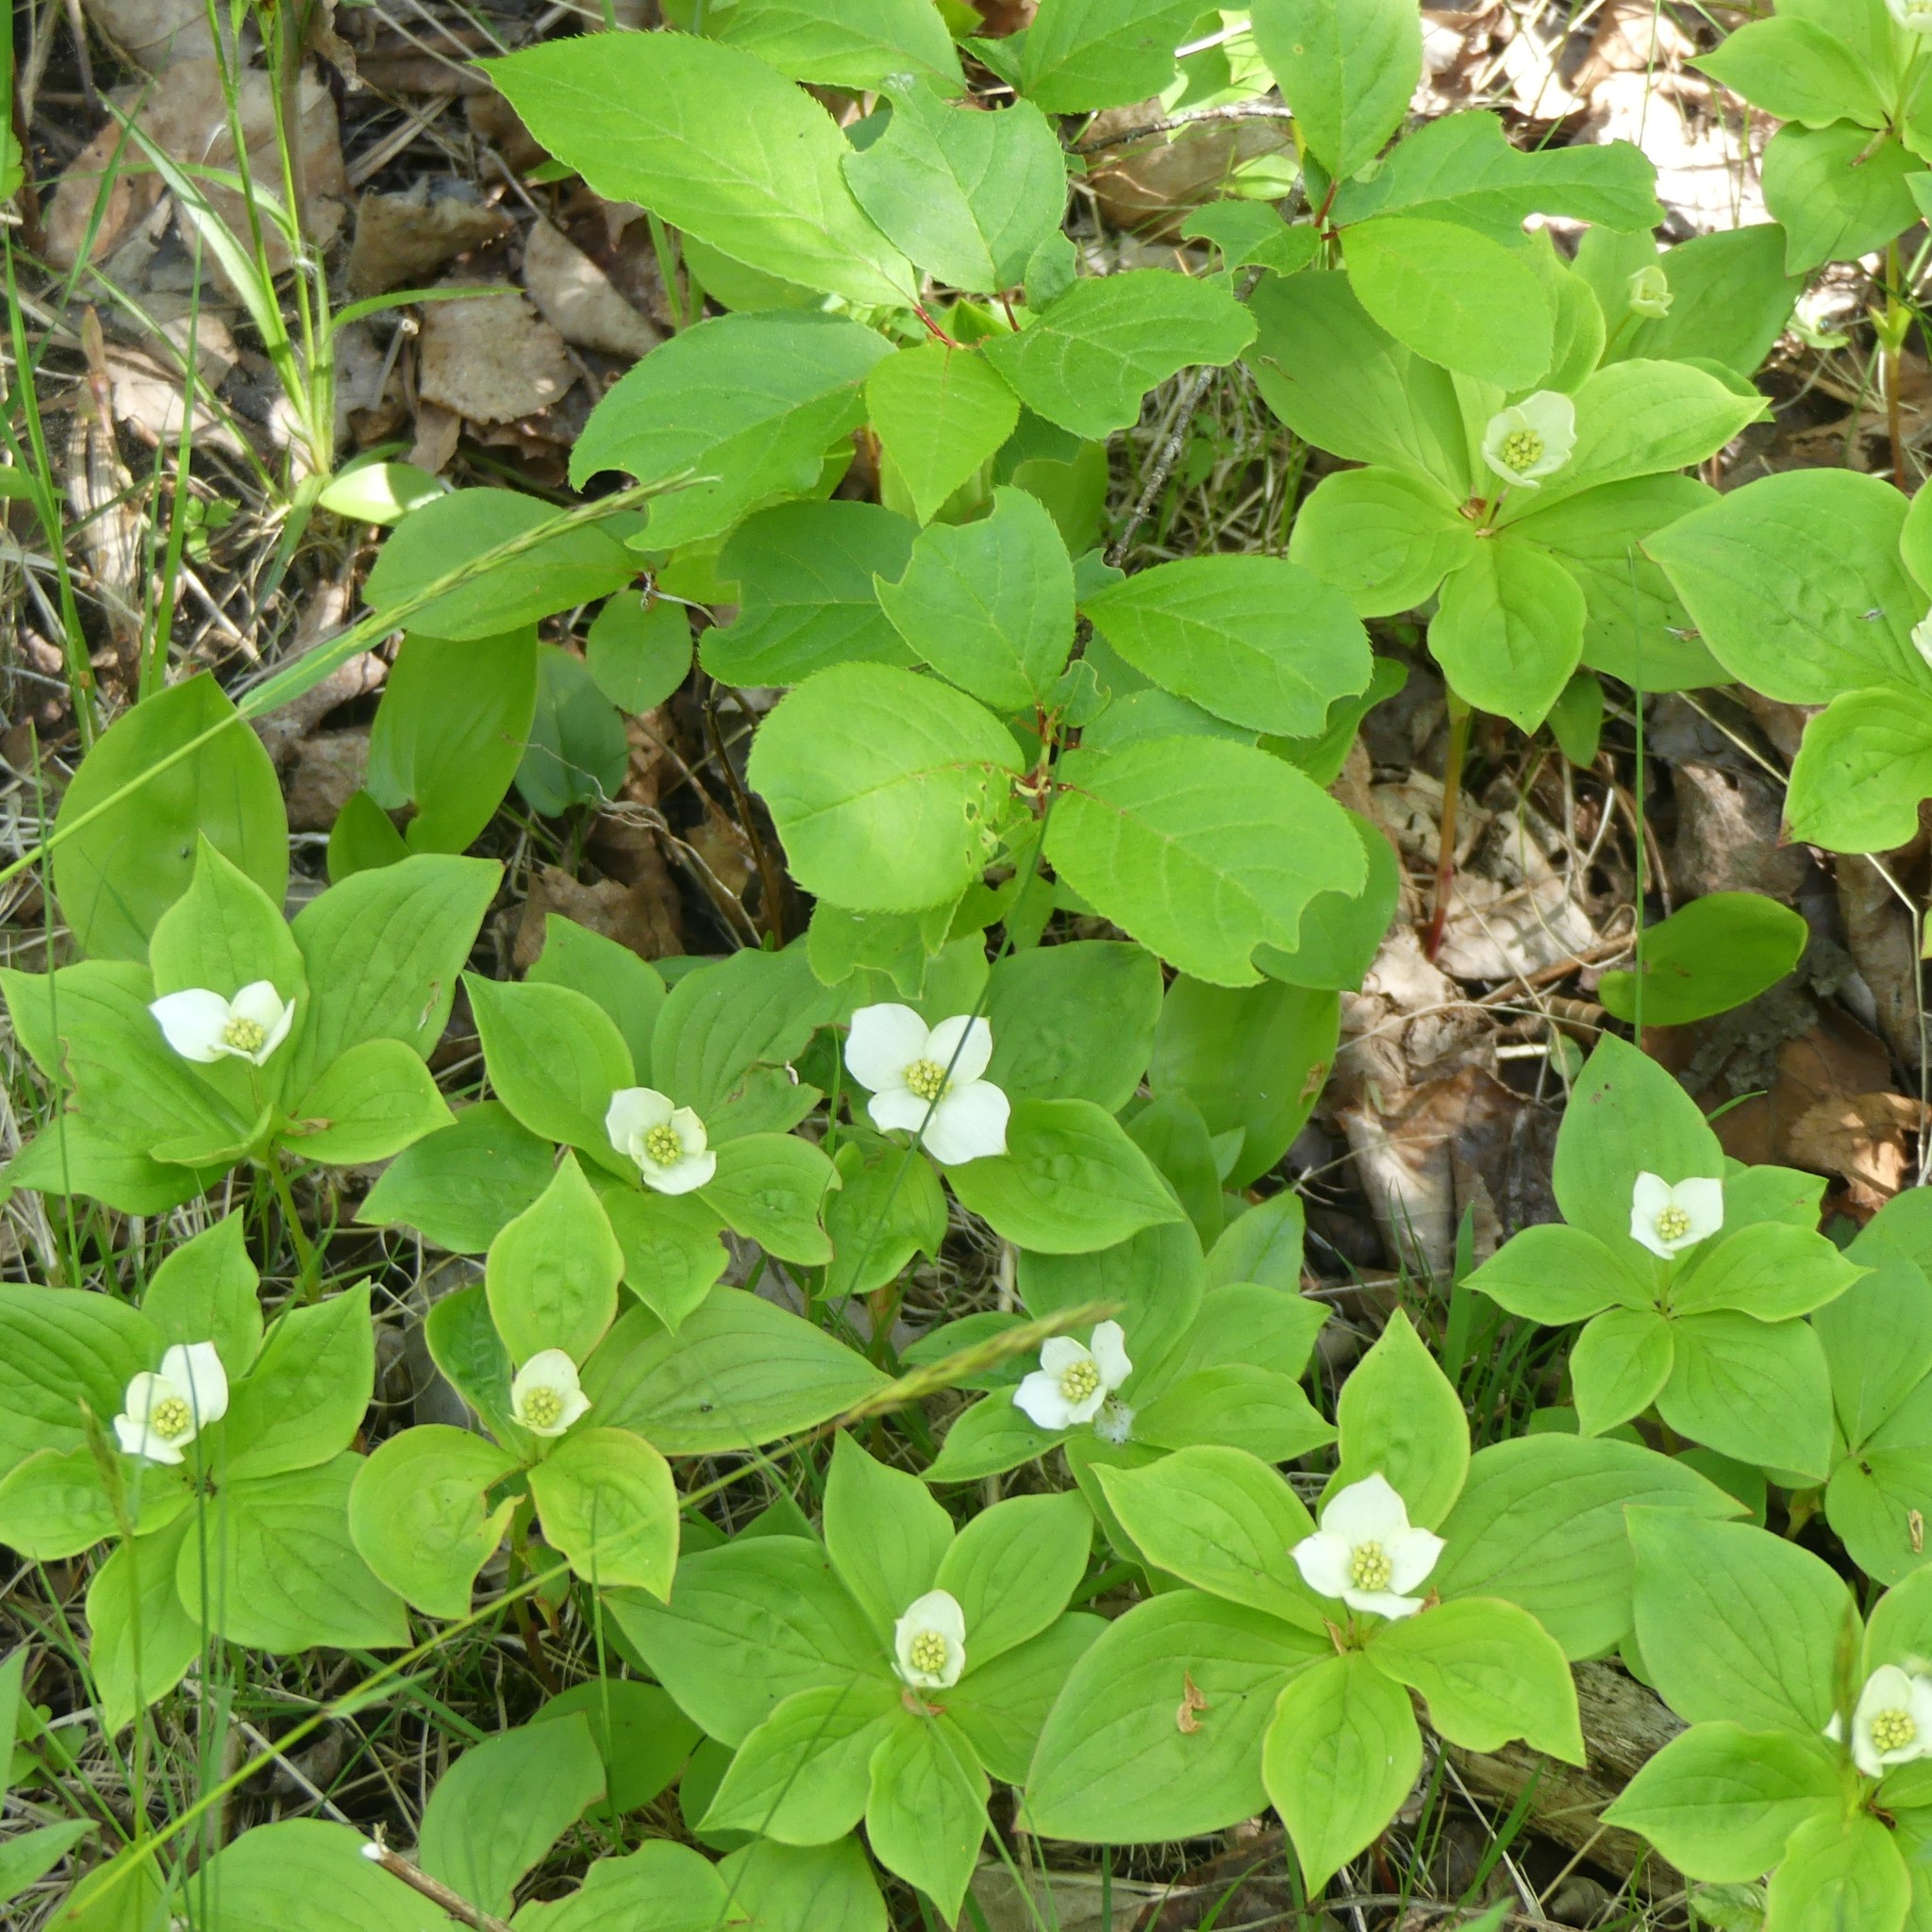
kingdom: Plantae
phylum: Tracheophyta
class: Magnoliopsida
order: Cornales
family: Cornaceae
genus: Cornus
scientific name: Cornus canadensis
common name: Creeping dogwood
